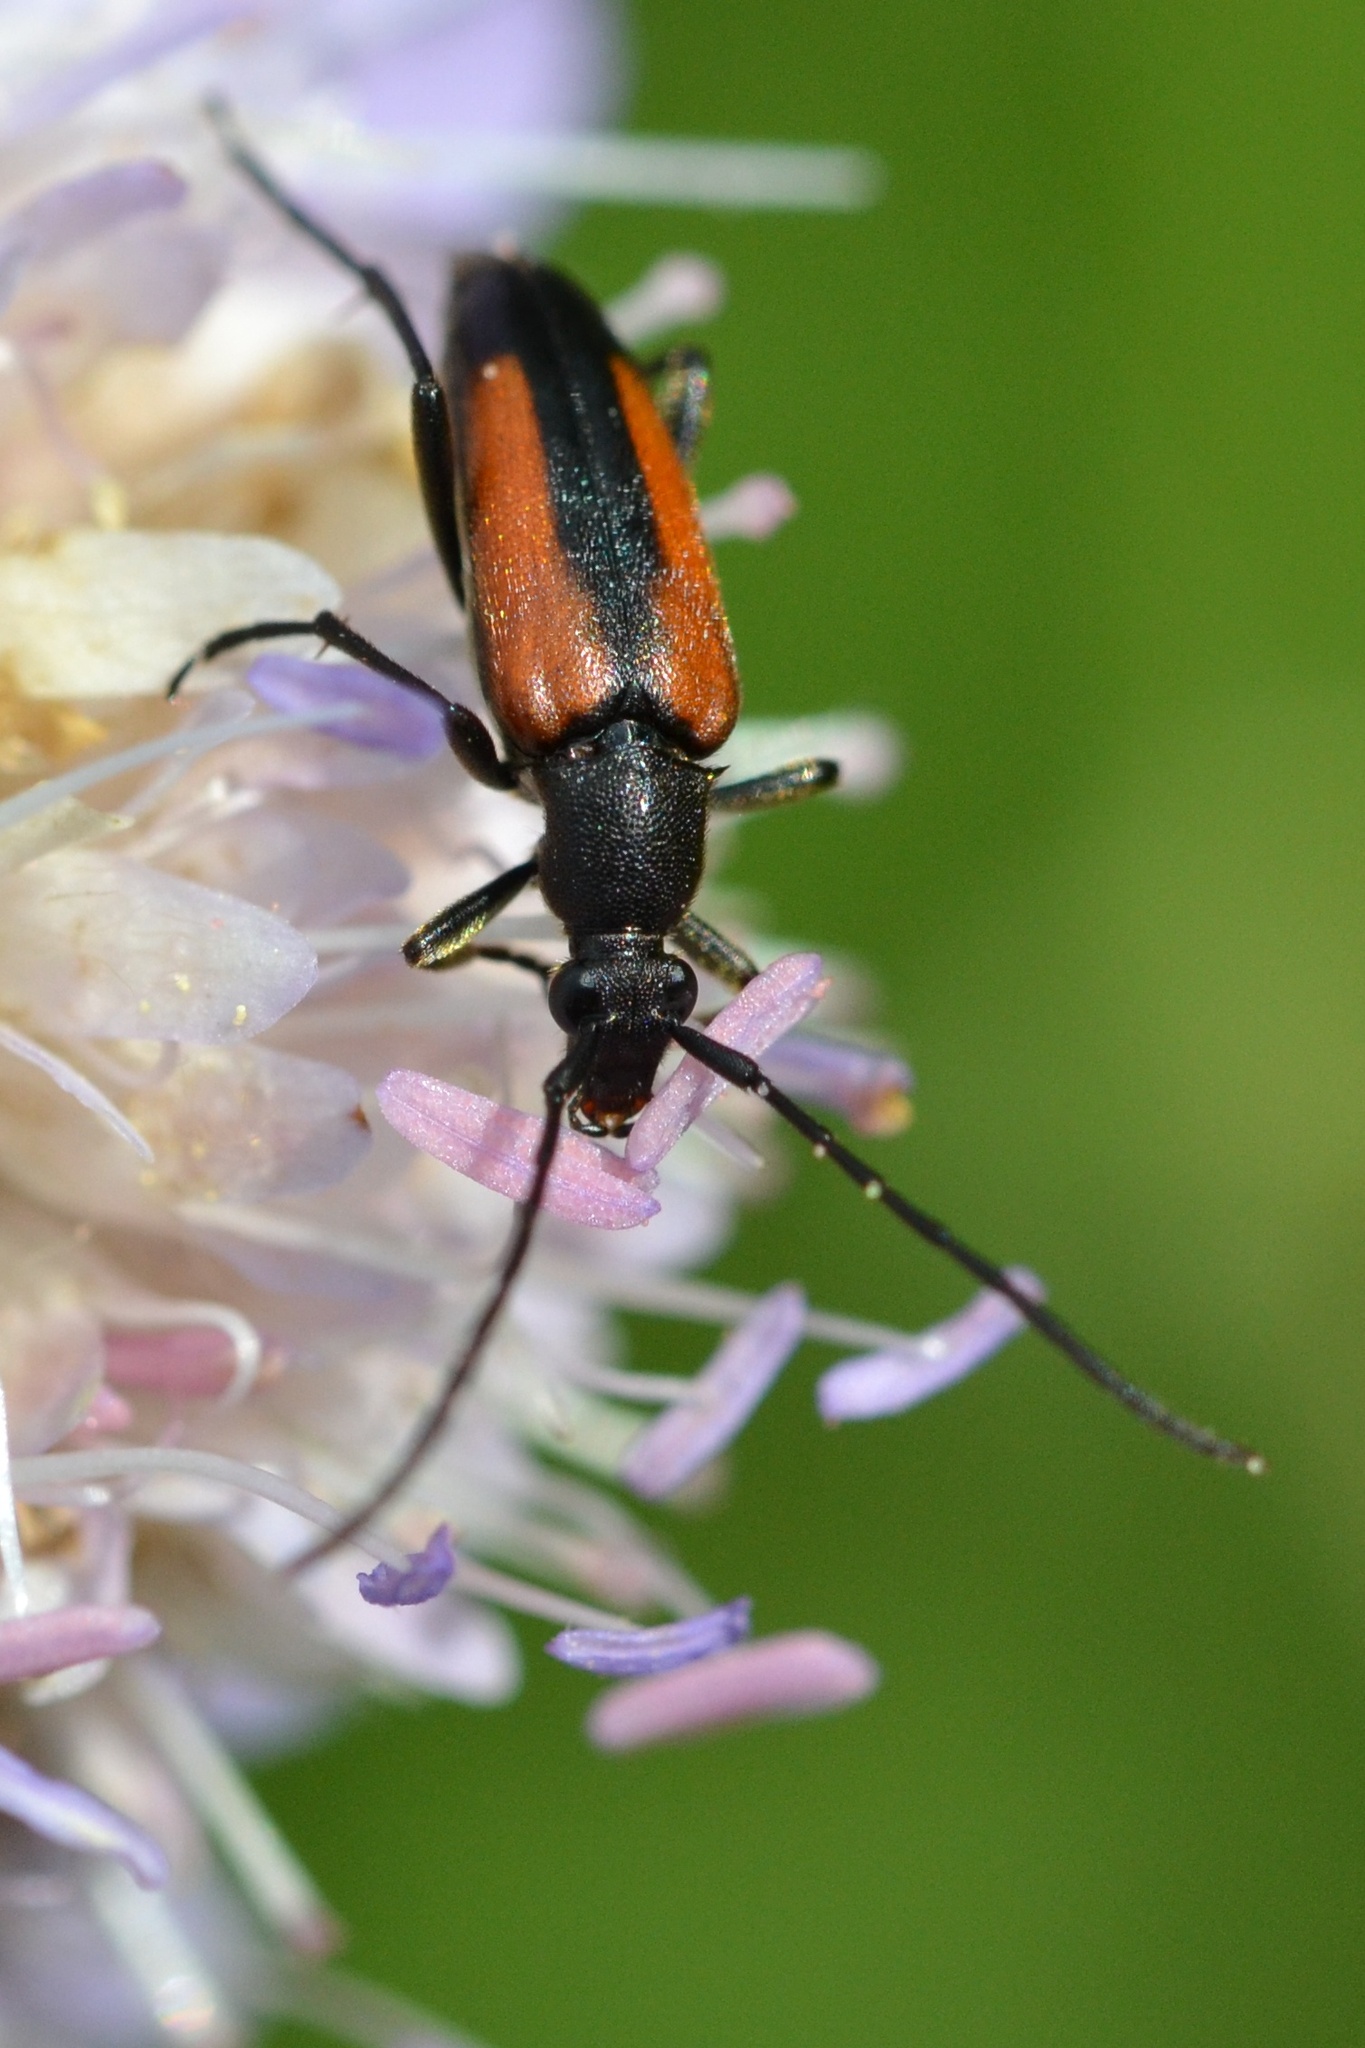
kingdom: Animalia
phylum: Arthropoda
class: Insecta
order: Coleoptera
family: Cerambycidae
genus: Stenurella
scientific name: Stenurella melanura
